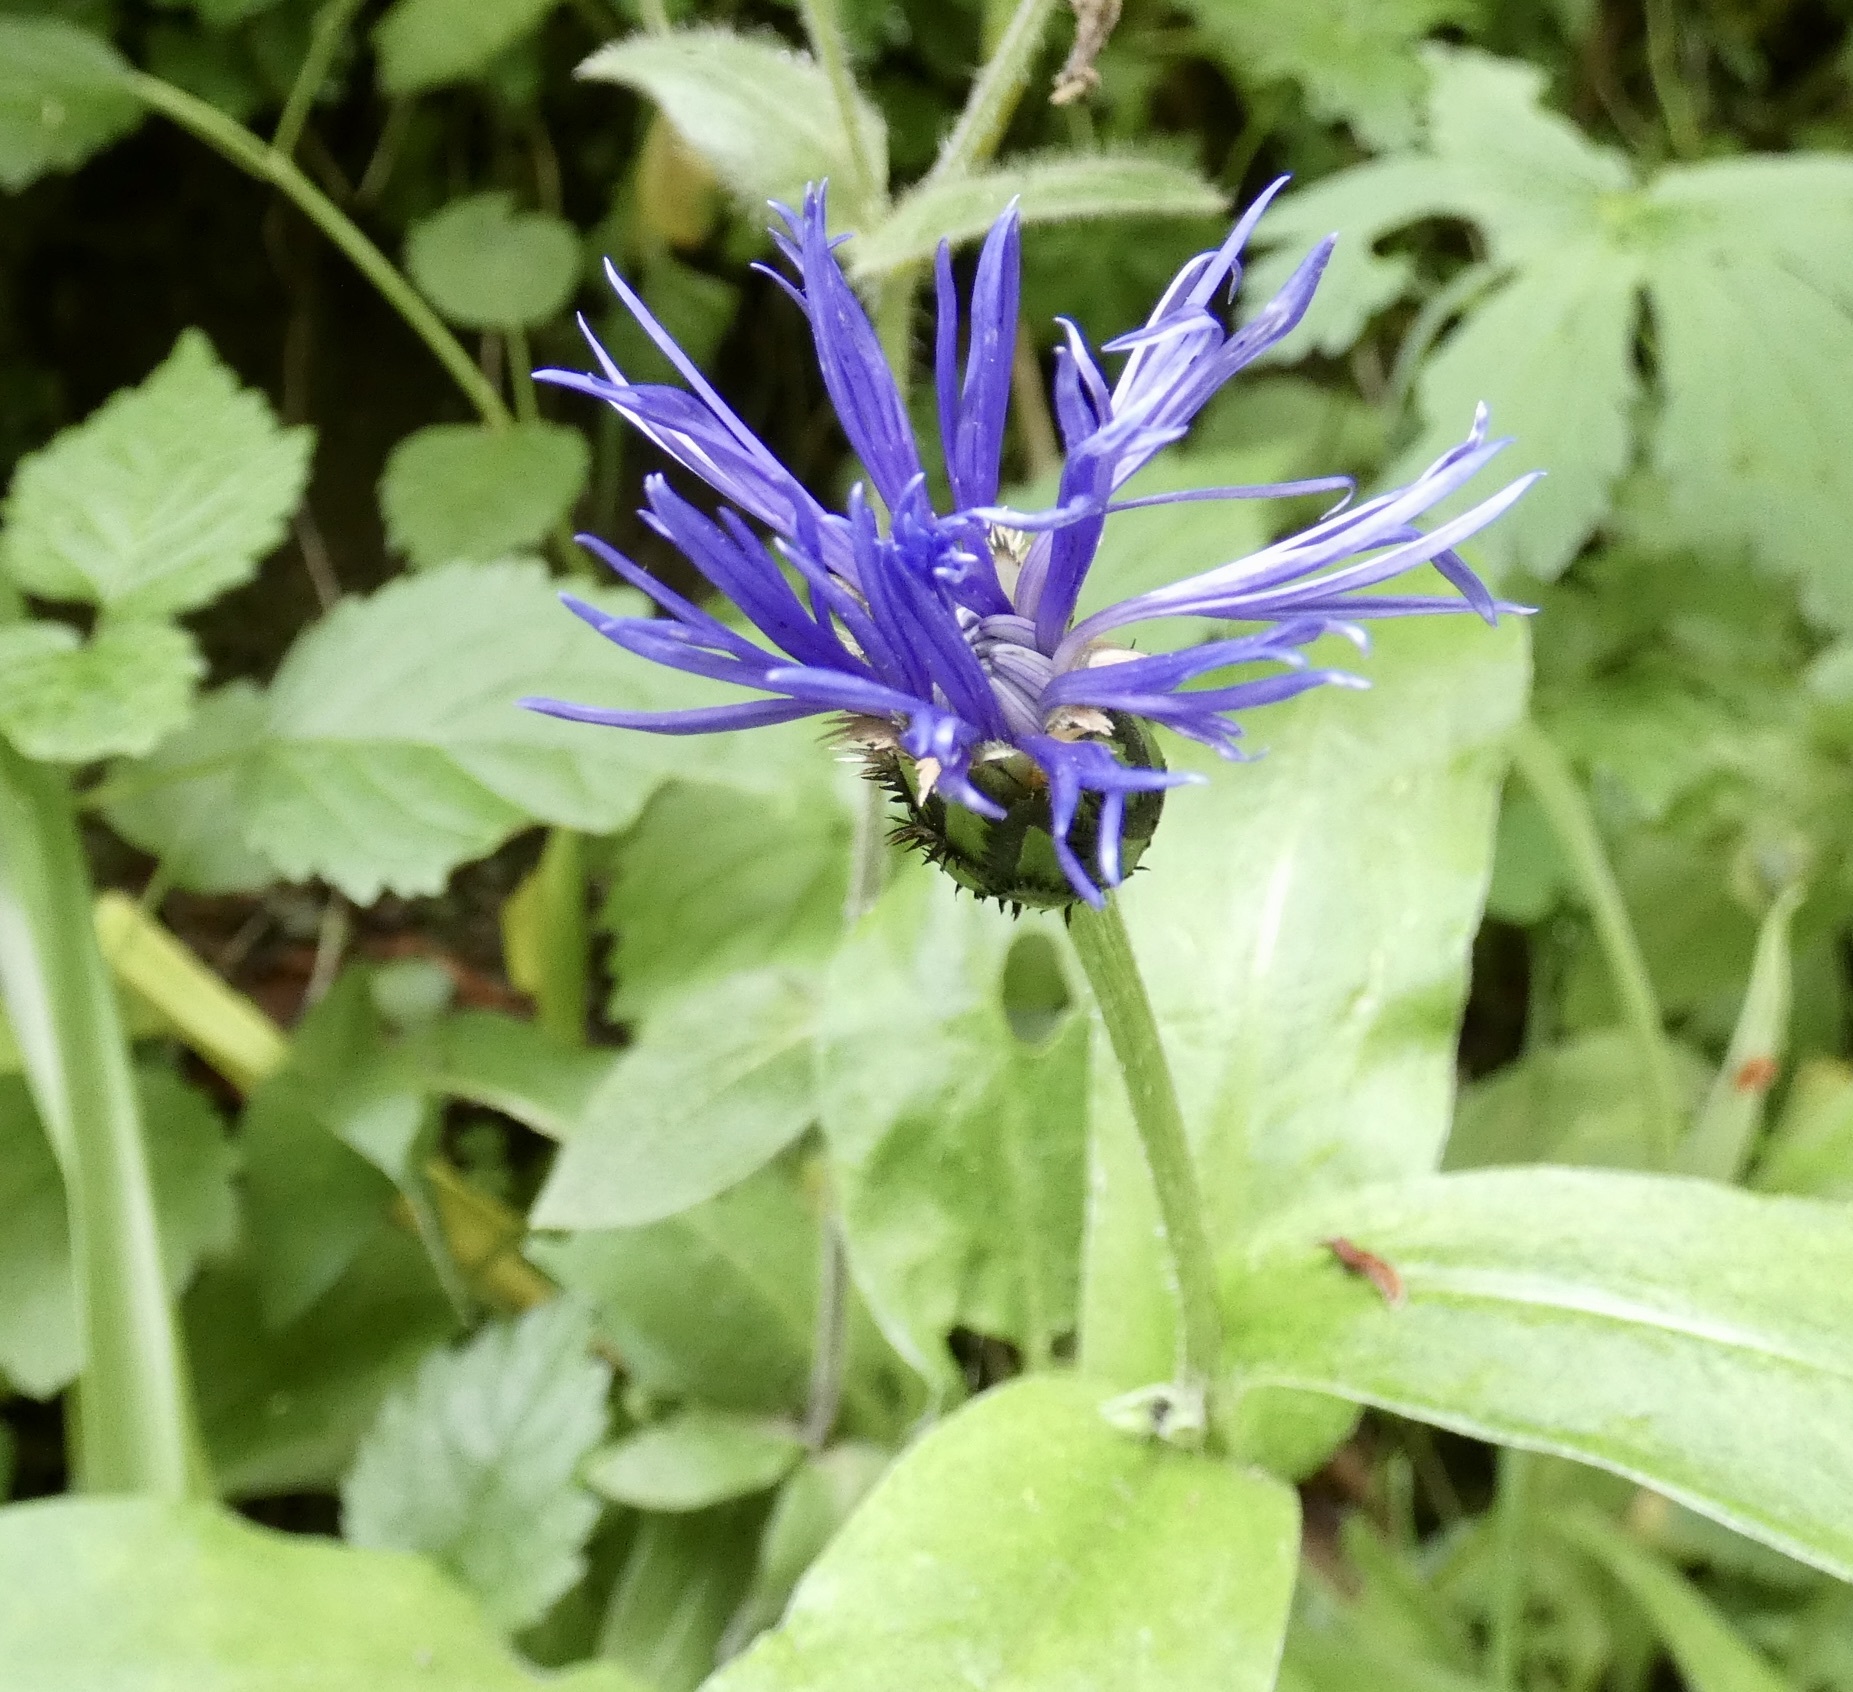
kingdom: Plantae
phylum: Tracheophyta
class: Magnoliopsida
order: Asterales
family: Asteraceae
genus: Centaurea
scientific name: Centaurea montana
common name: Perennial cornflower
